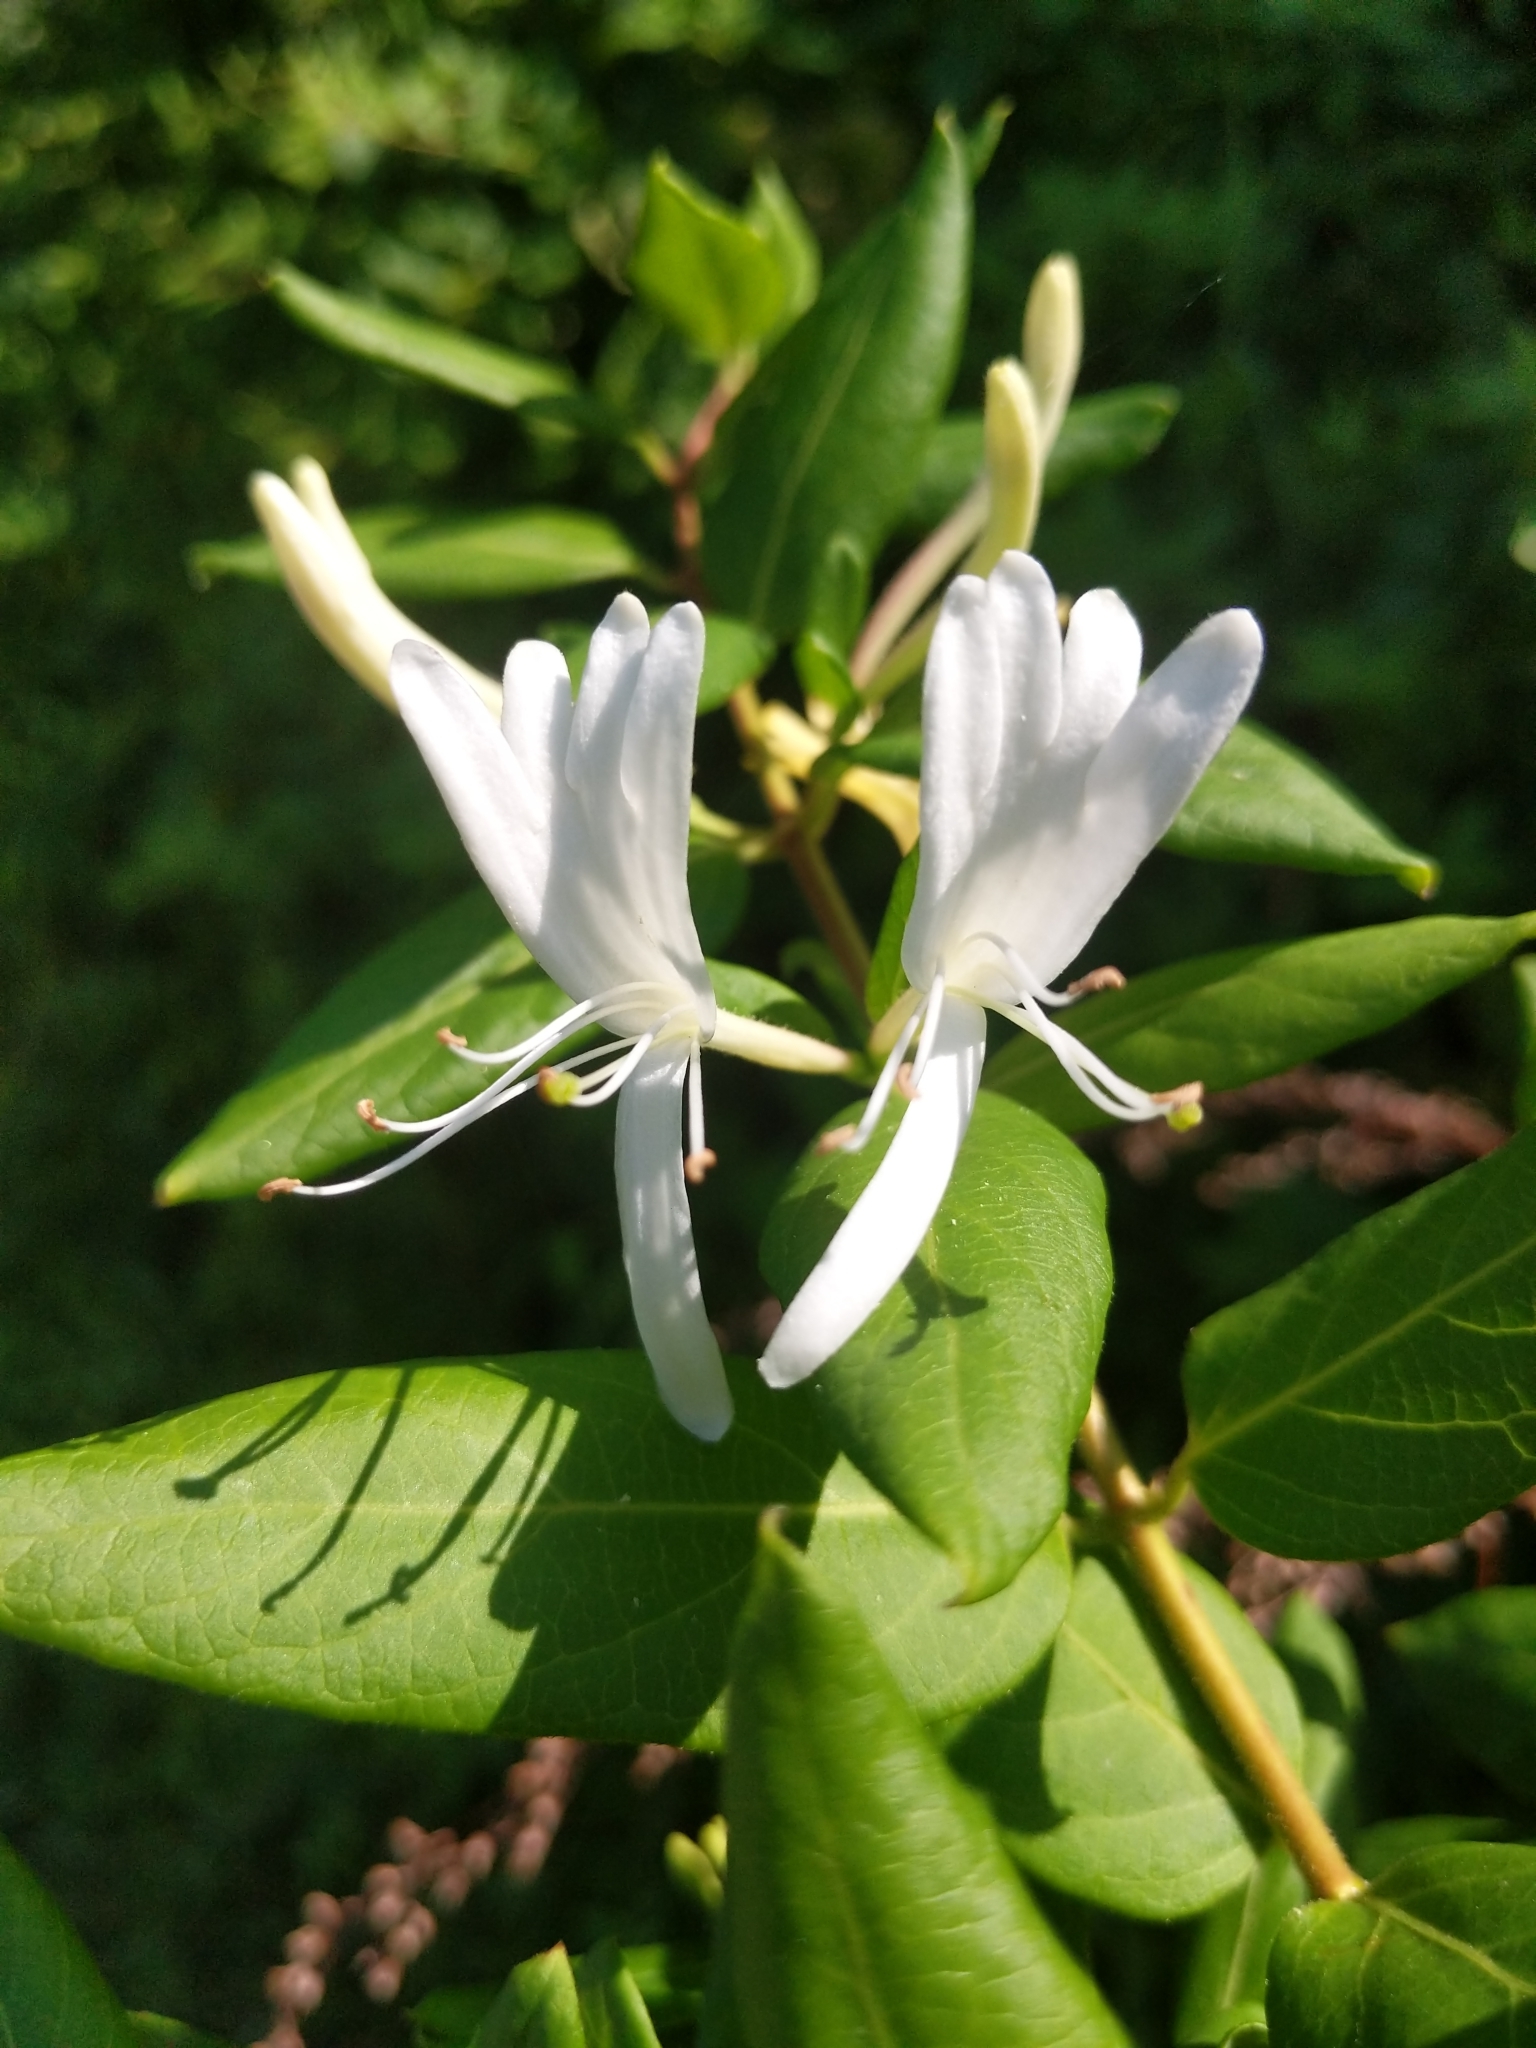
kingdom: Plantae
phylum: Tracheophyta
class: Magnoliopsida
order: Dipsacales
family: Caprifoliaceae
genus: Lonicera
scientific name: Lonicera japonica
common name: Japanese honeysuckle
